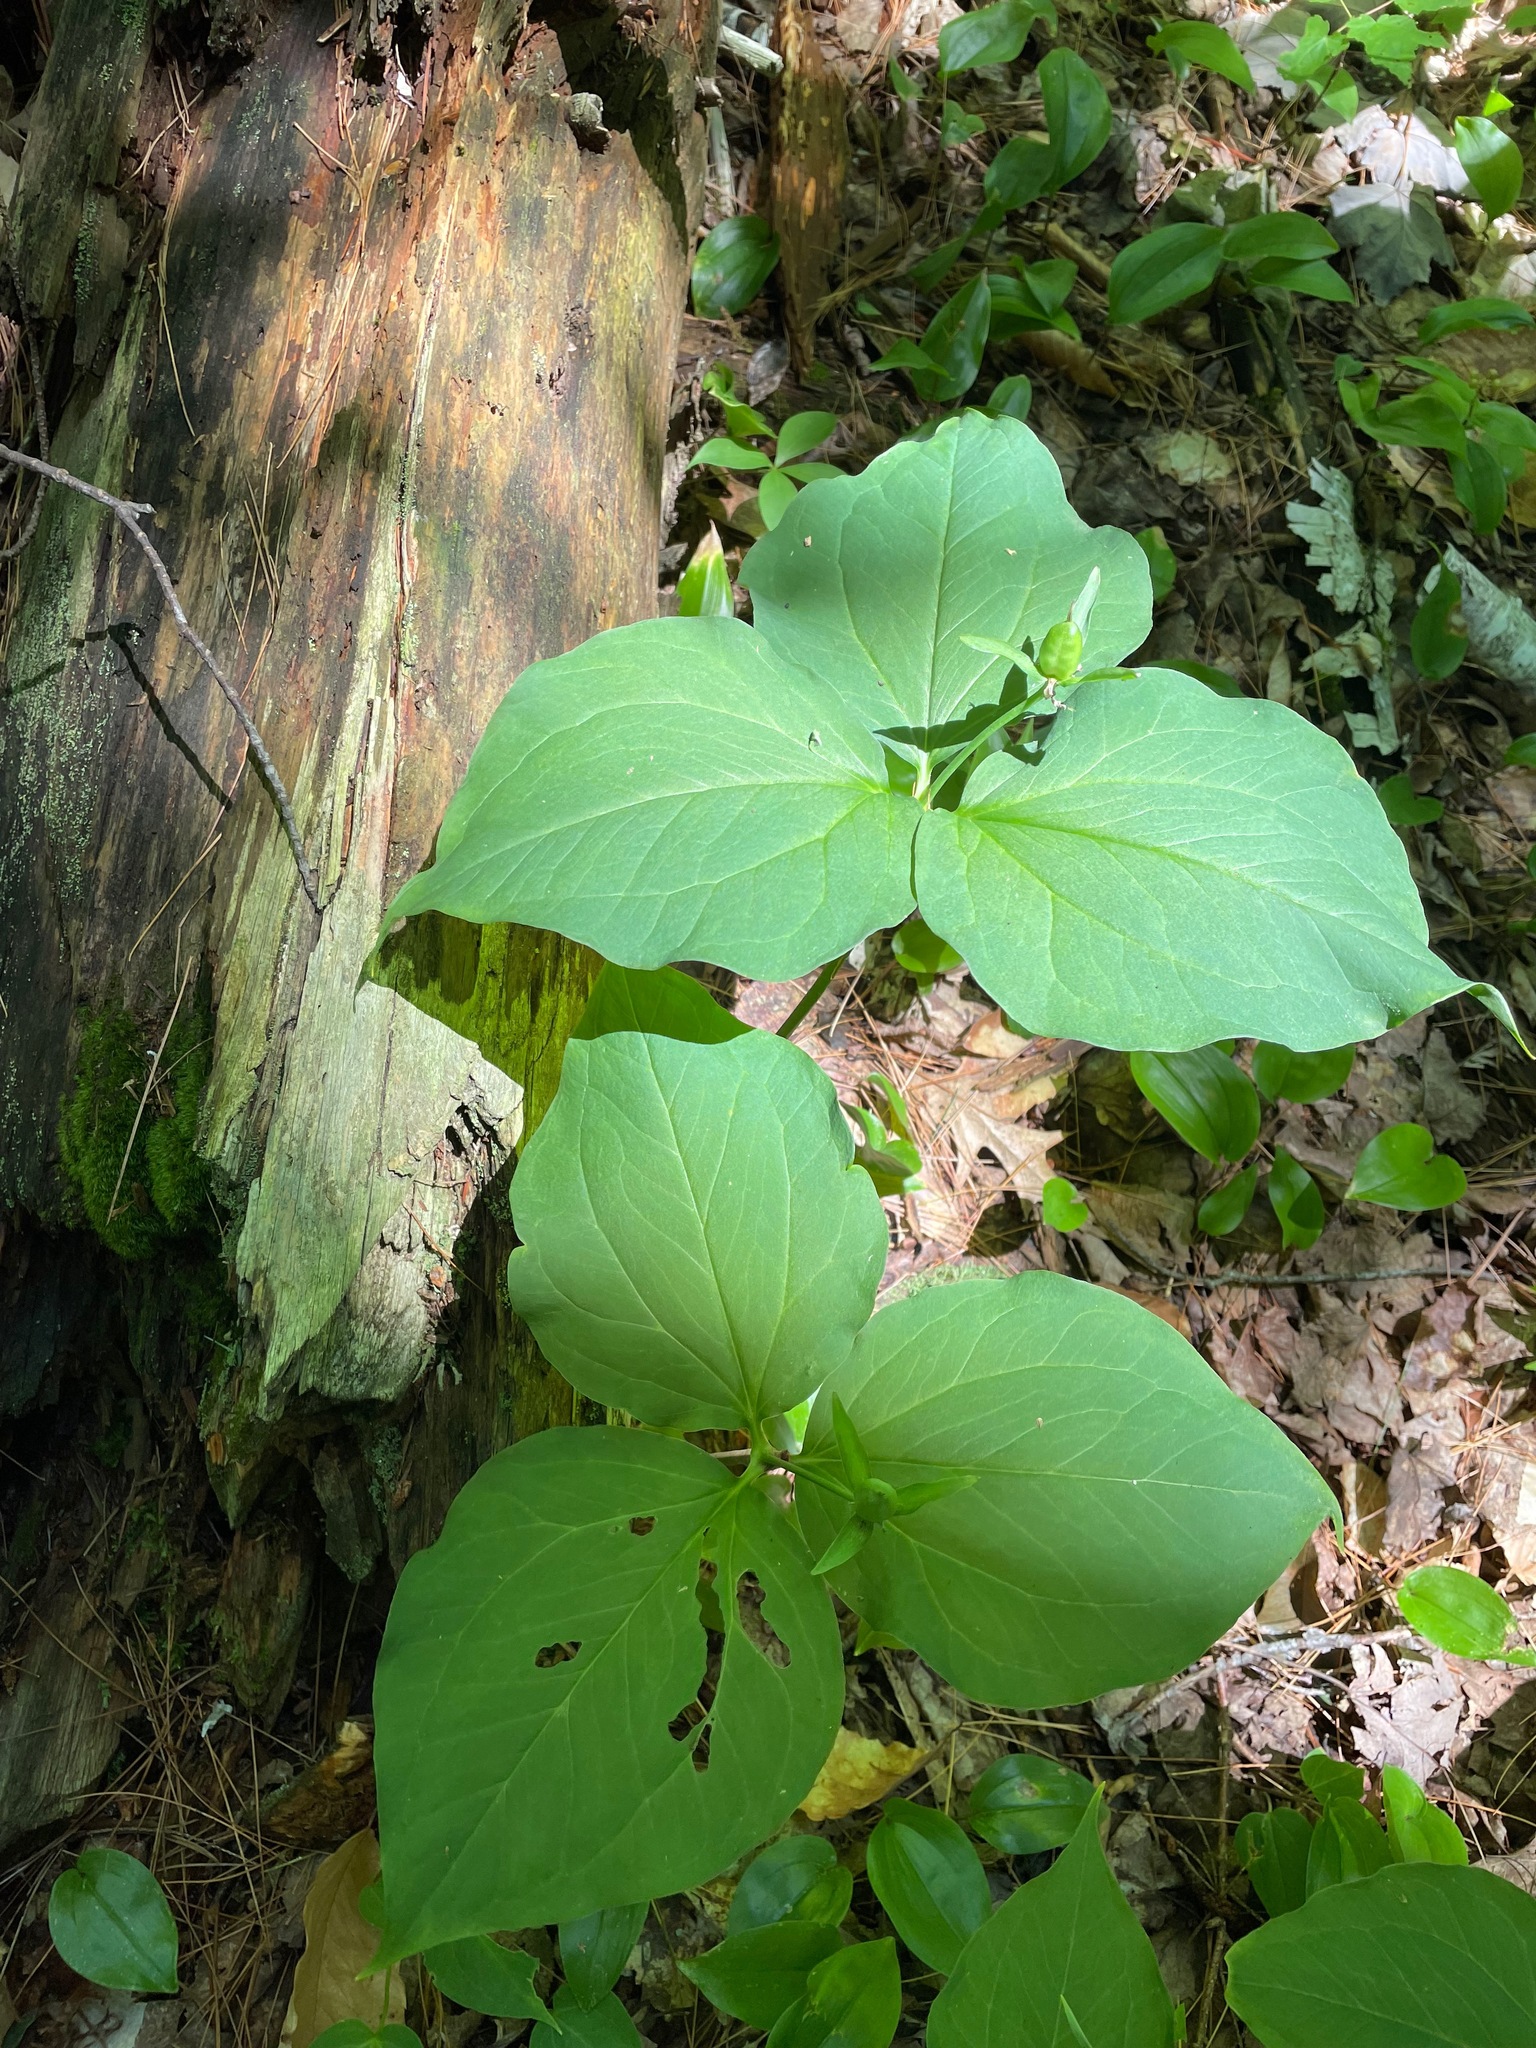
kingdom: Plantae
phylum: Tracheophyta
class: Liliopsida
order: Liliales
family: Melanthiaceae
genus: Trillium
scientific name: Trillium undulatum
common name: Paint trillium
